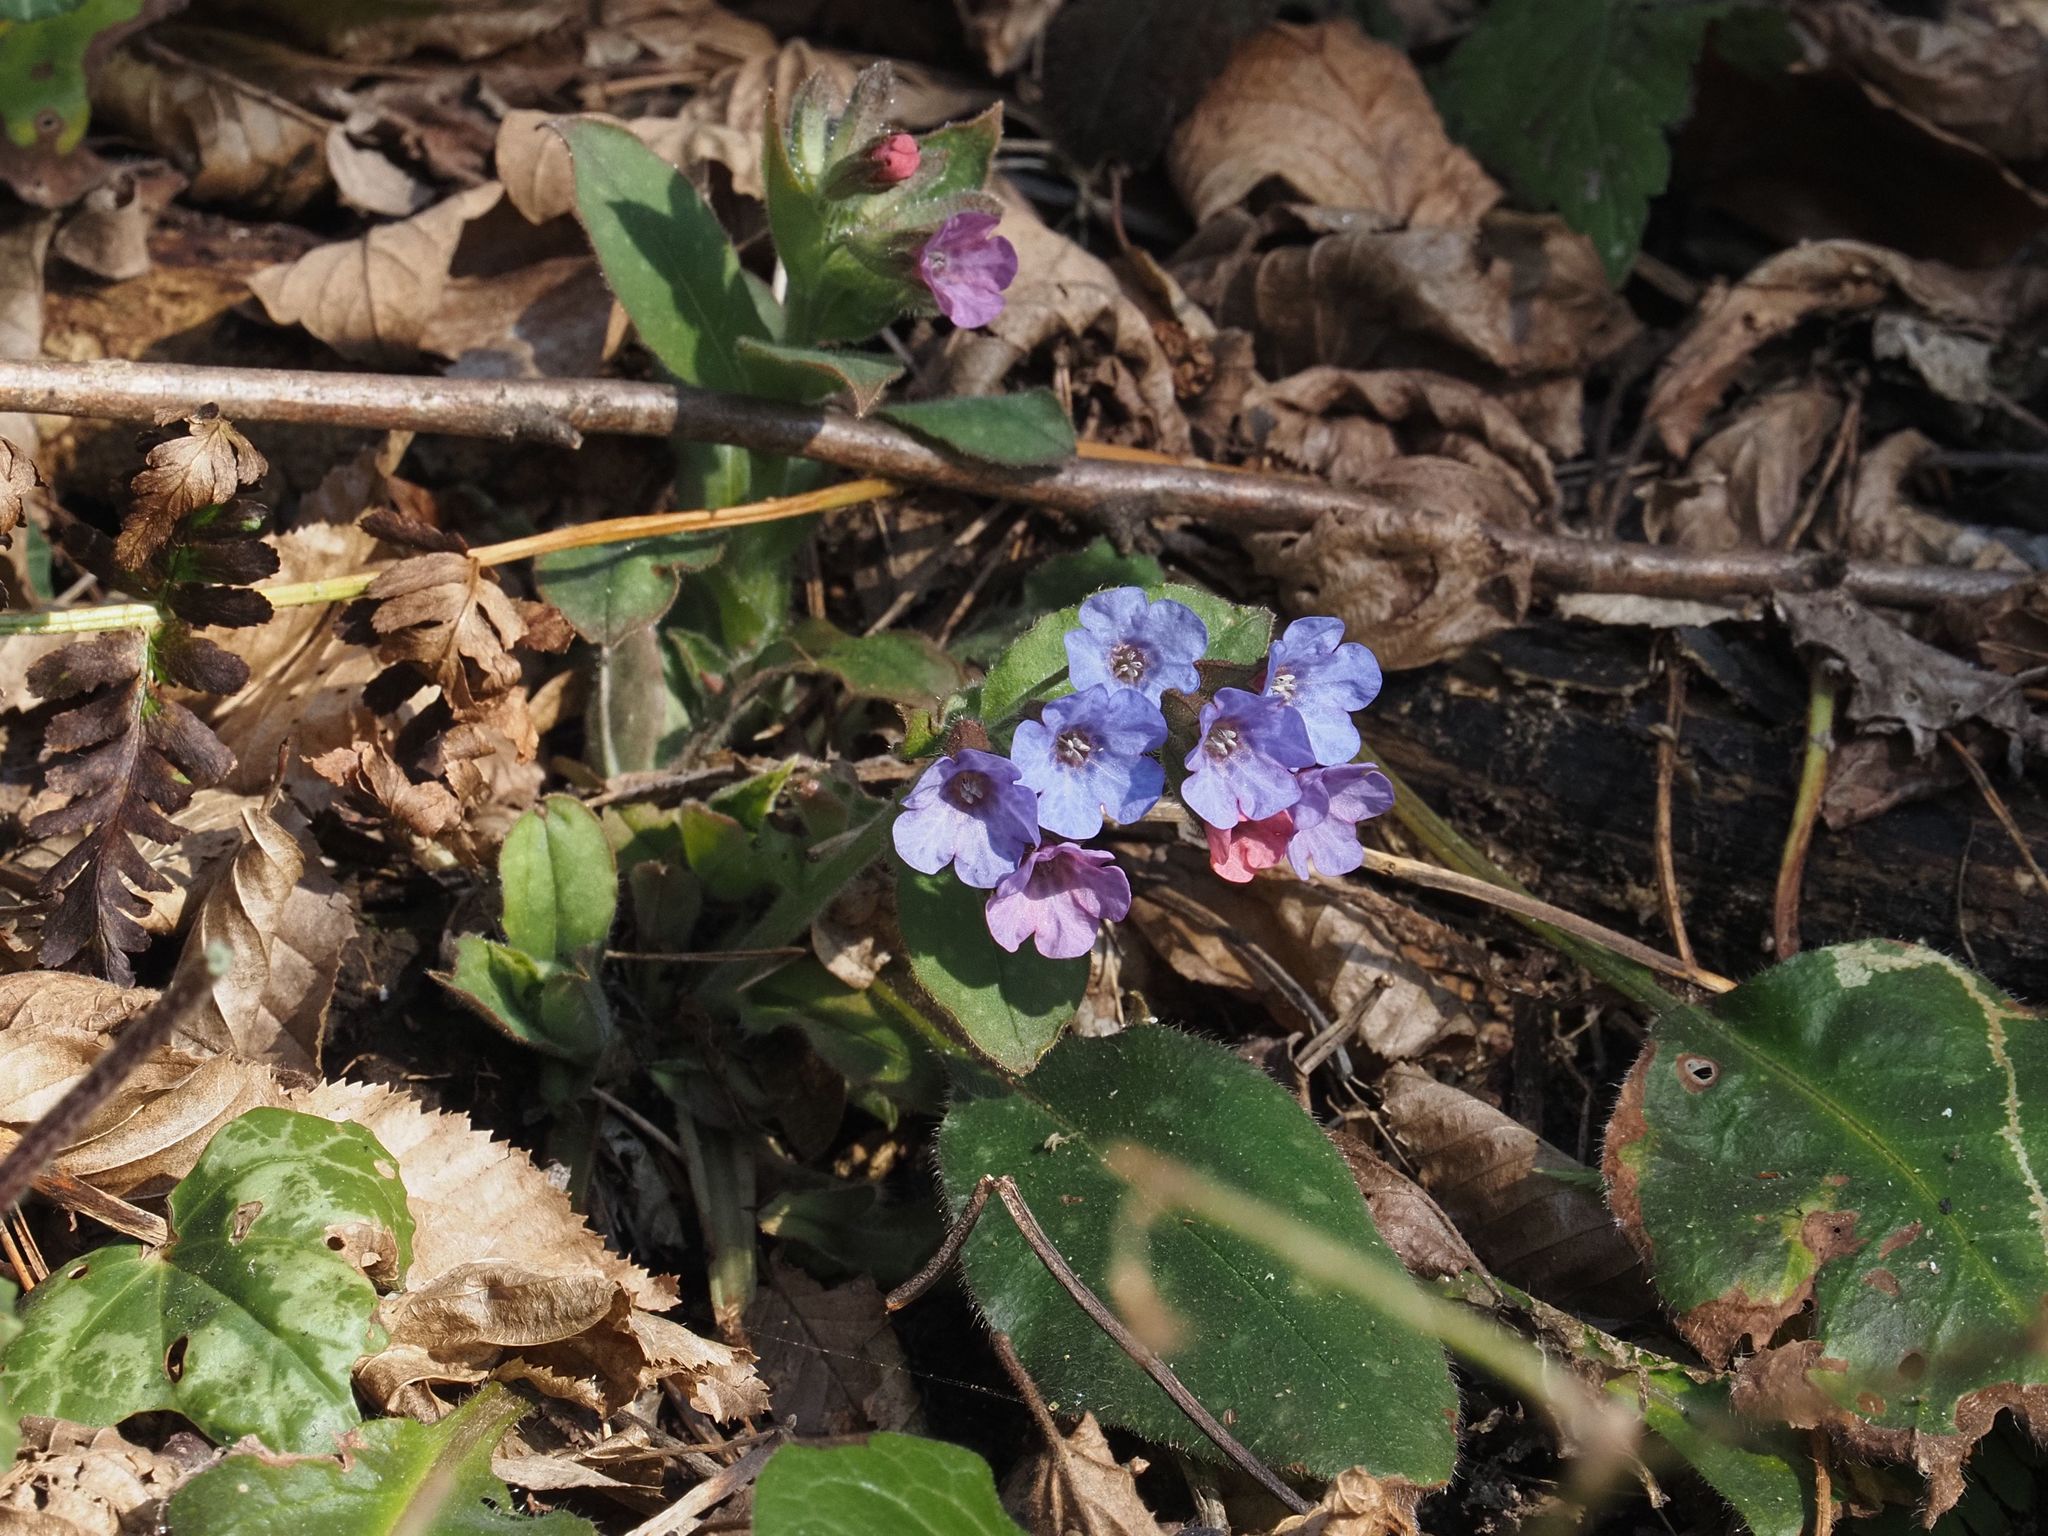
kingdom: Plantae
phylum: Tracheophyta
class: Magnoliopsida
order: Boraginales
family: Boraginaceae
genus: Pulmonaria
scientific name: Pulmonaria officinalis
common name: Lungwort
